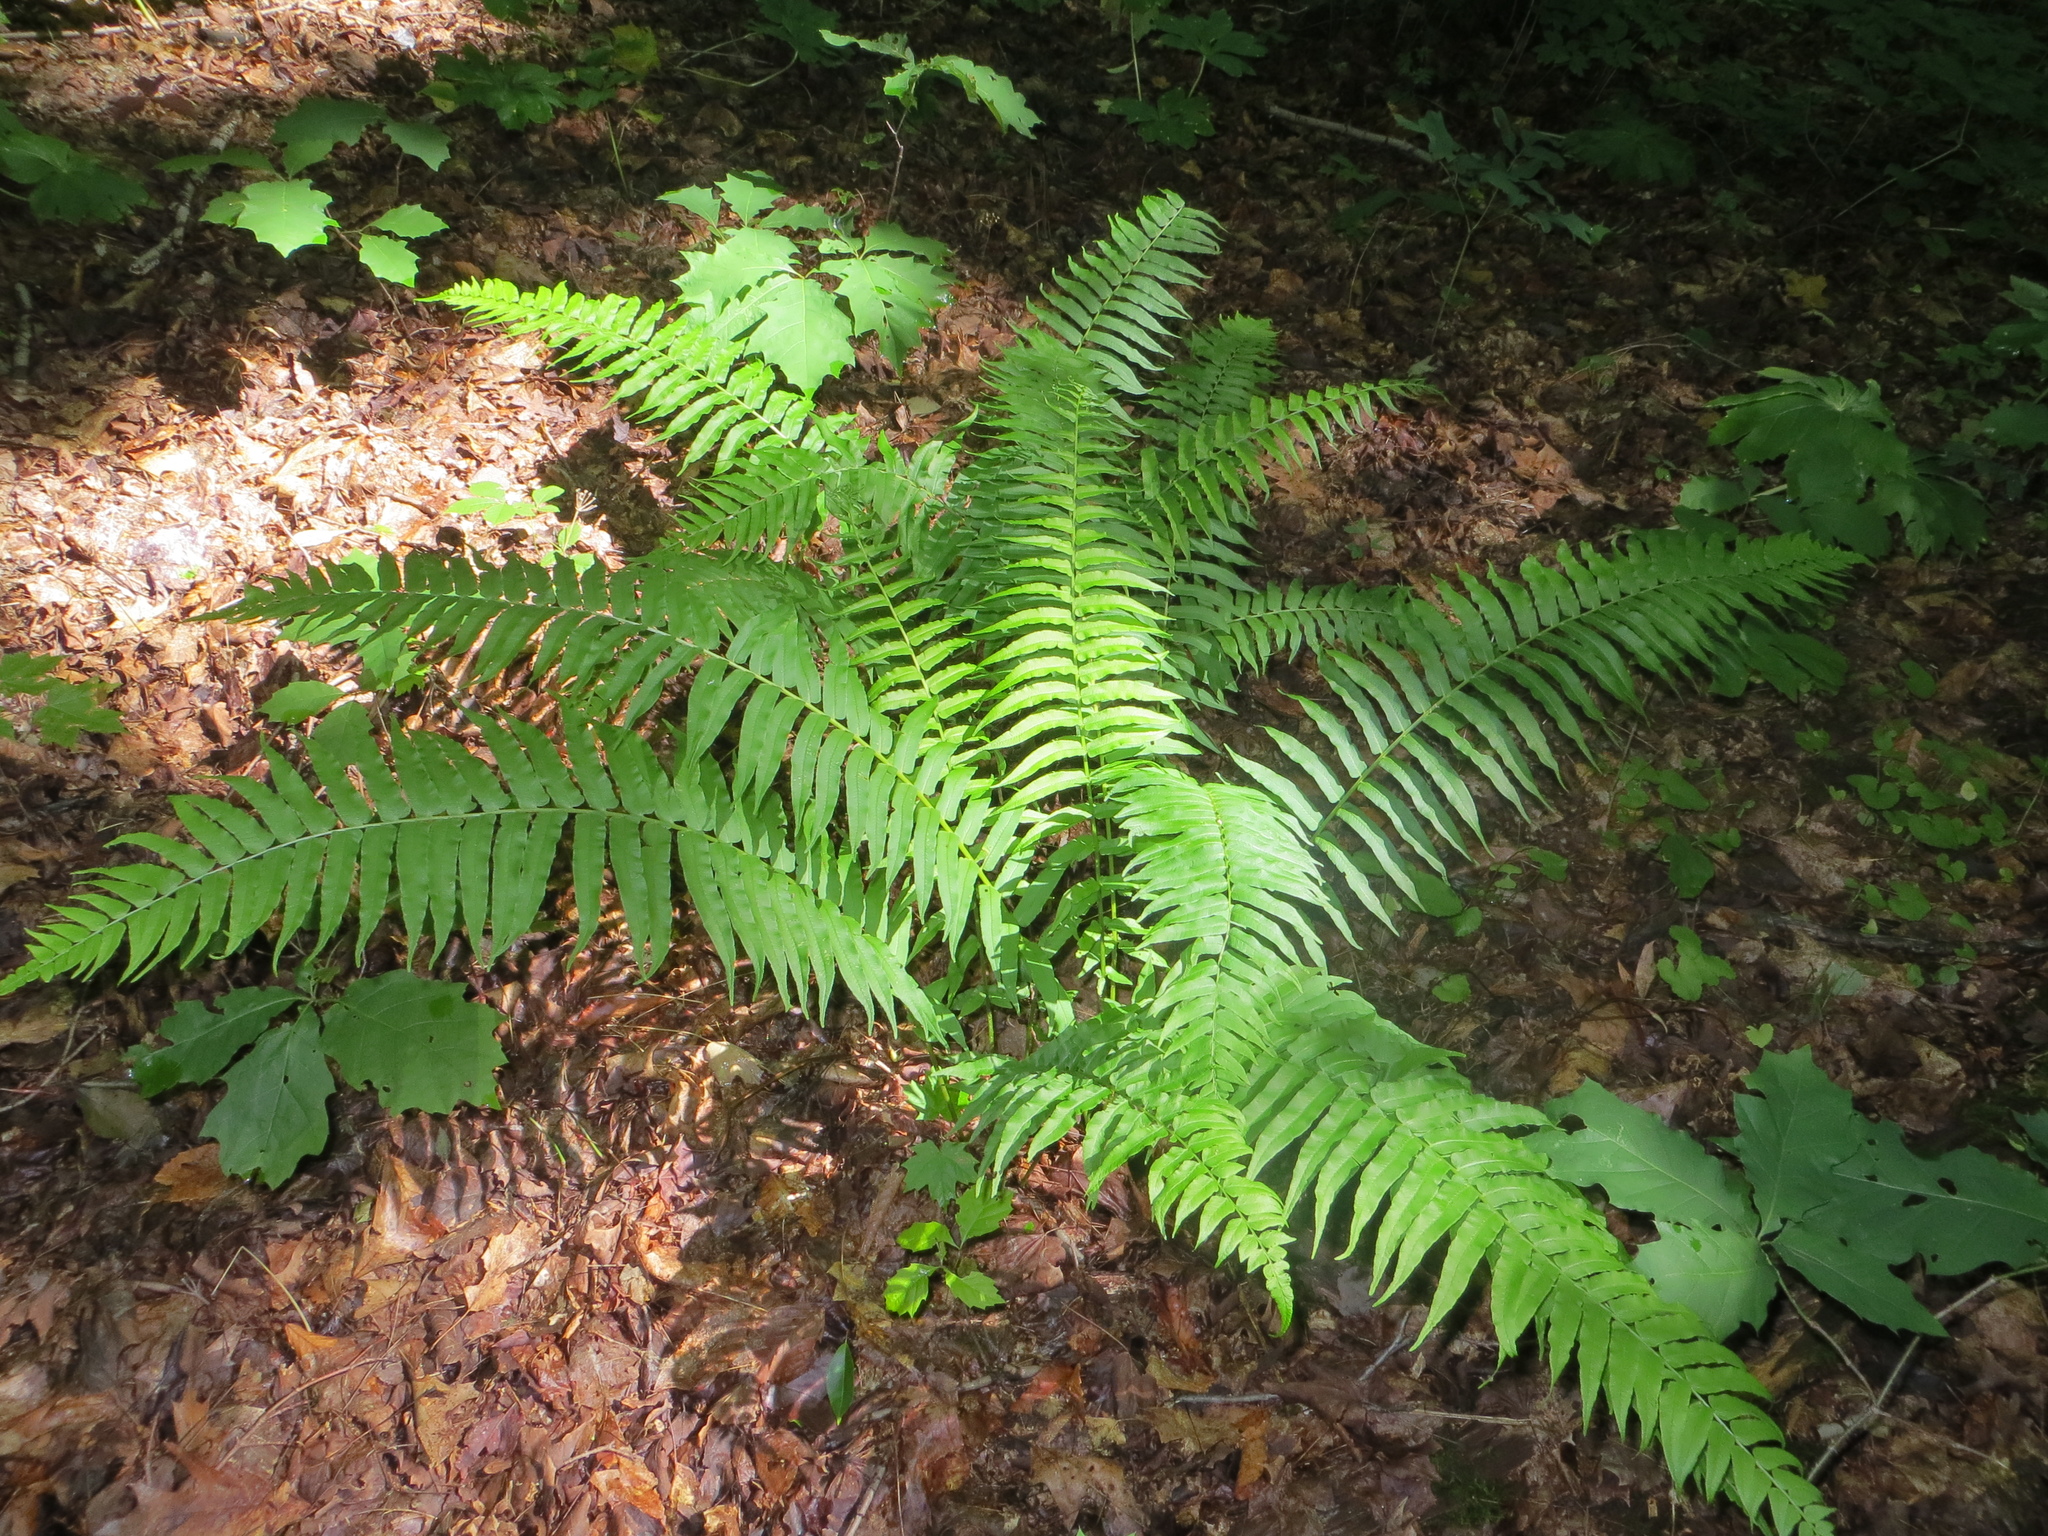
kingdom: Plantae
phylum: Tracheophyta
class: Polypodiopsida
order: Polypodiales
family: Diplaziopsidaceae
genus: Homalosorus
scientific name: Homalosorus pycnocarpos
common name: Glade fern
